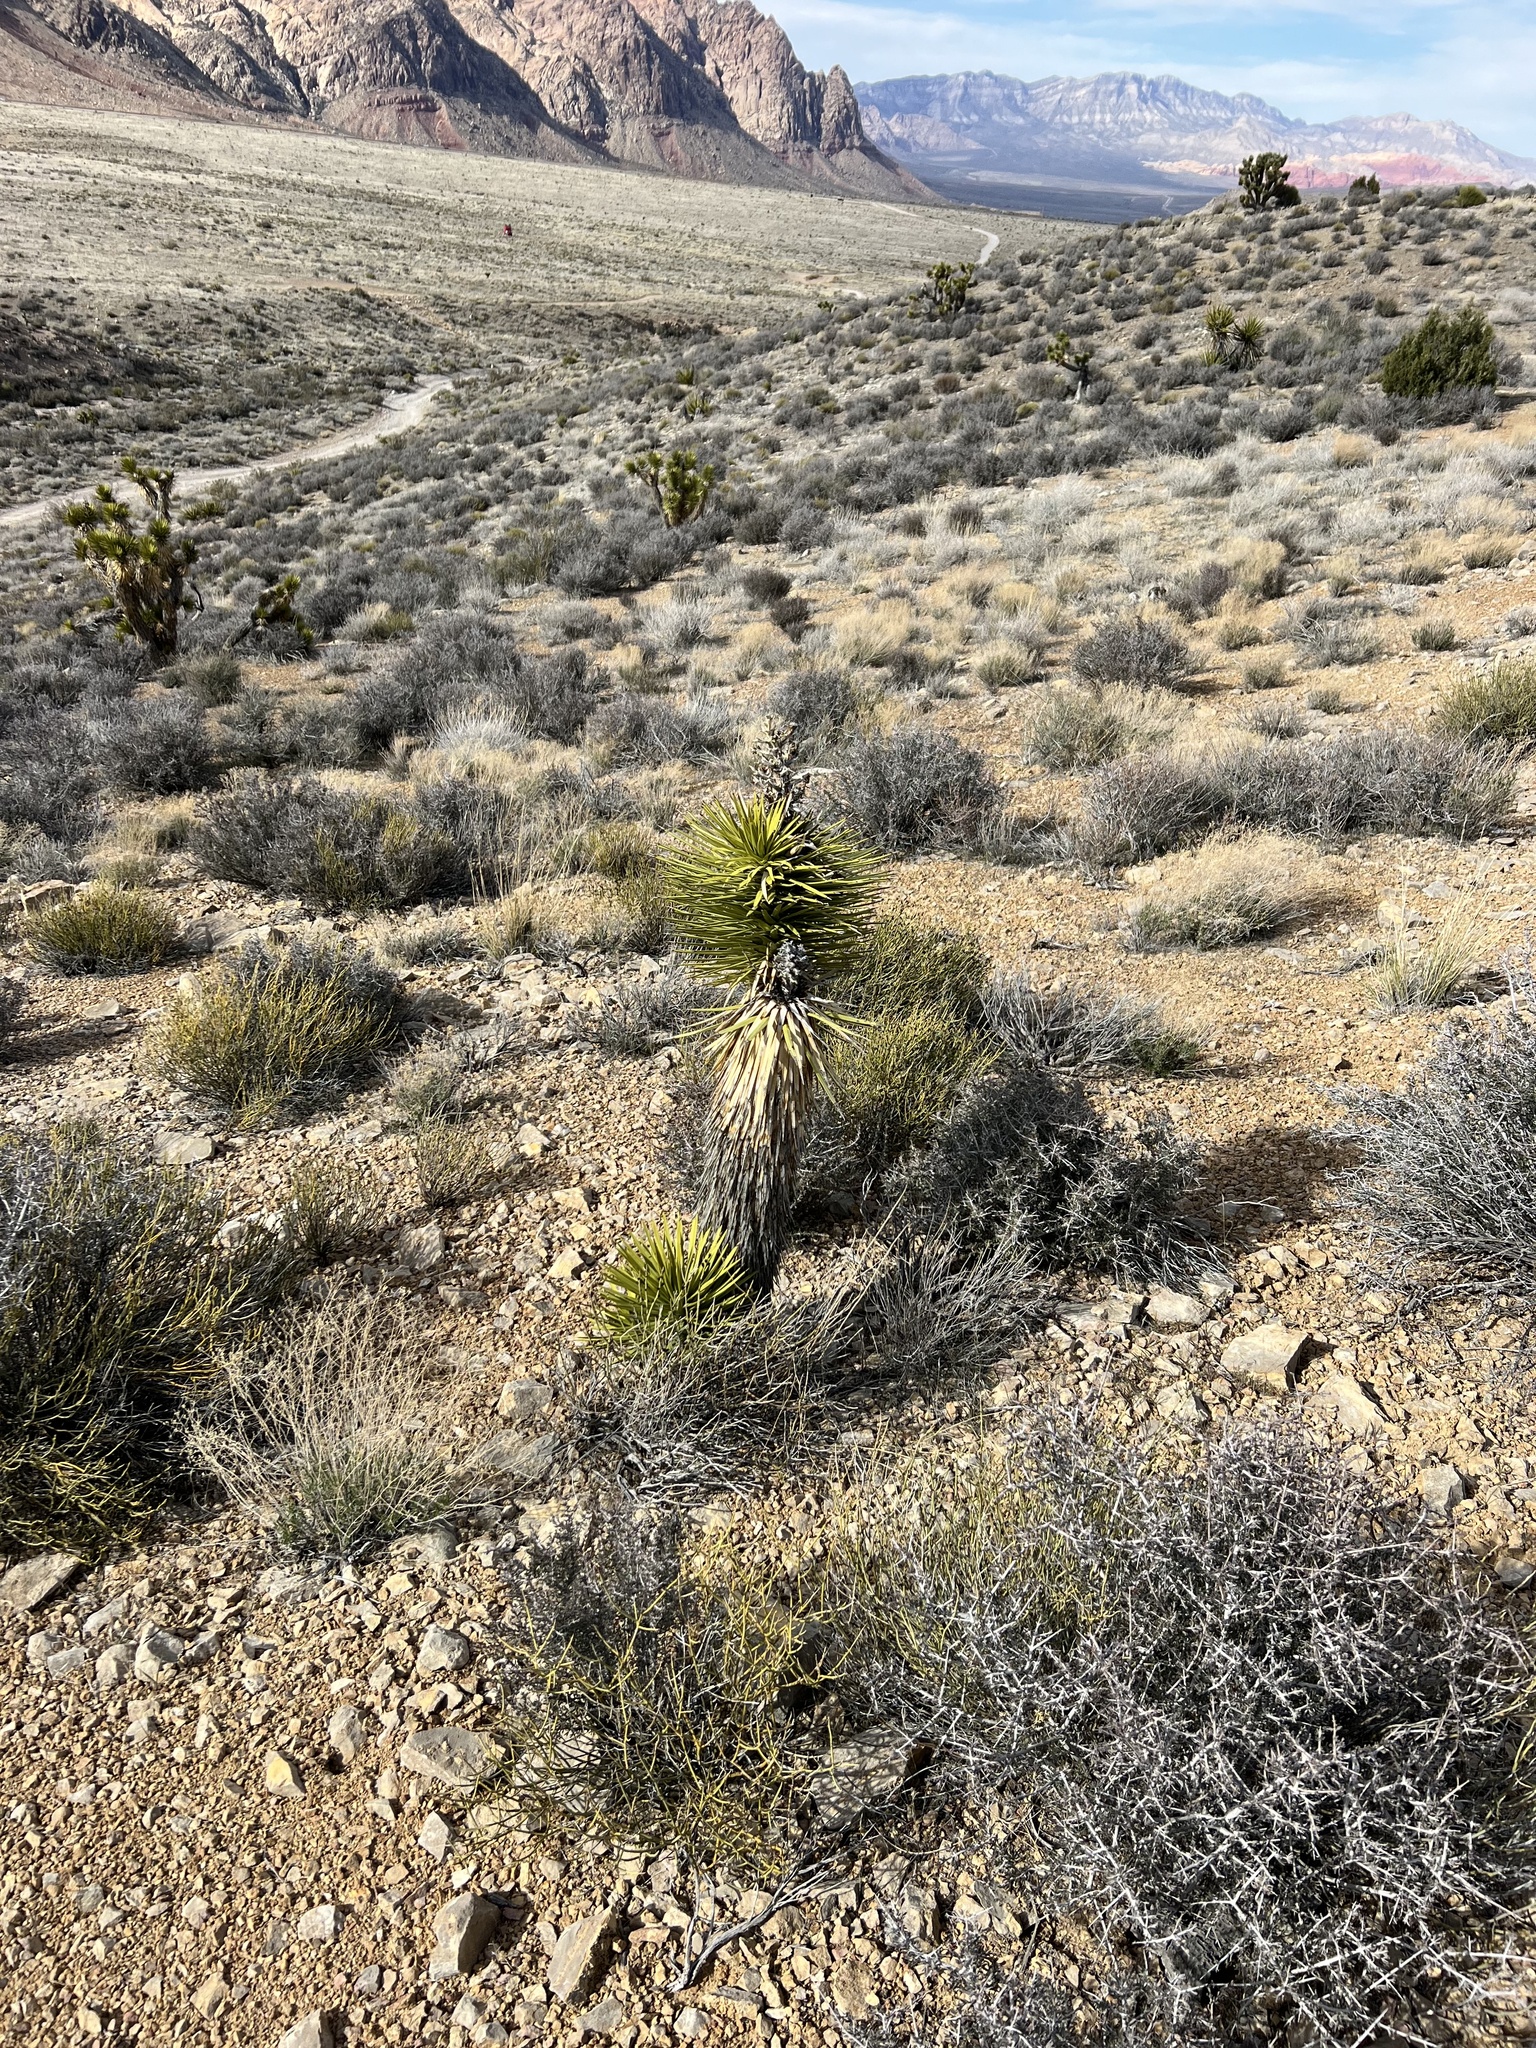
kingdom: Plantae
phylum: Tracheophyta
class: Liliopsida
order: Asparagales
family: Asparagaceae
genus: Yucca
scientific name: Yucca brevifolia
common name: Joshua tree
